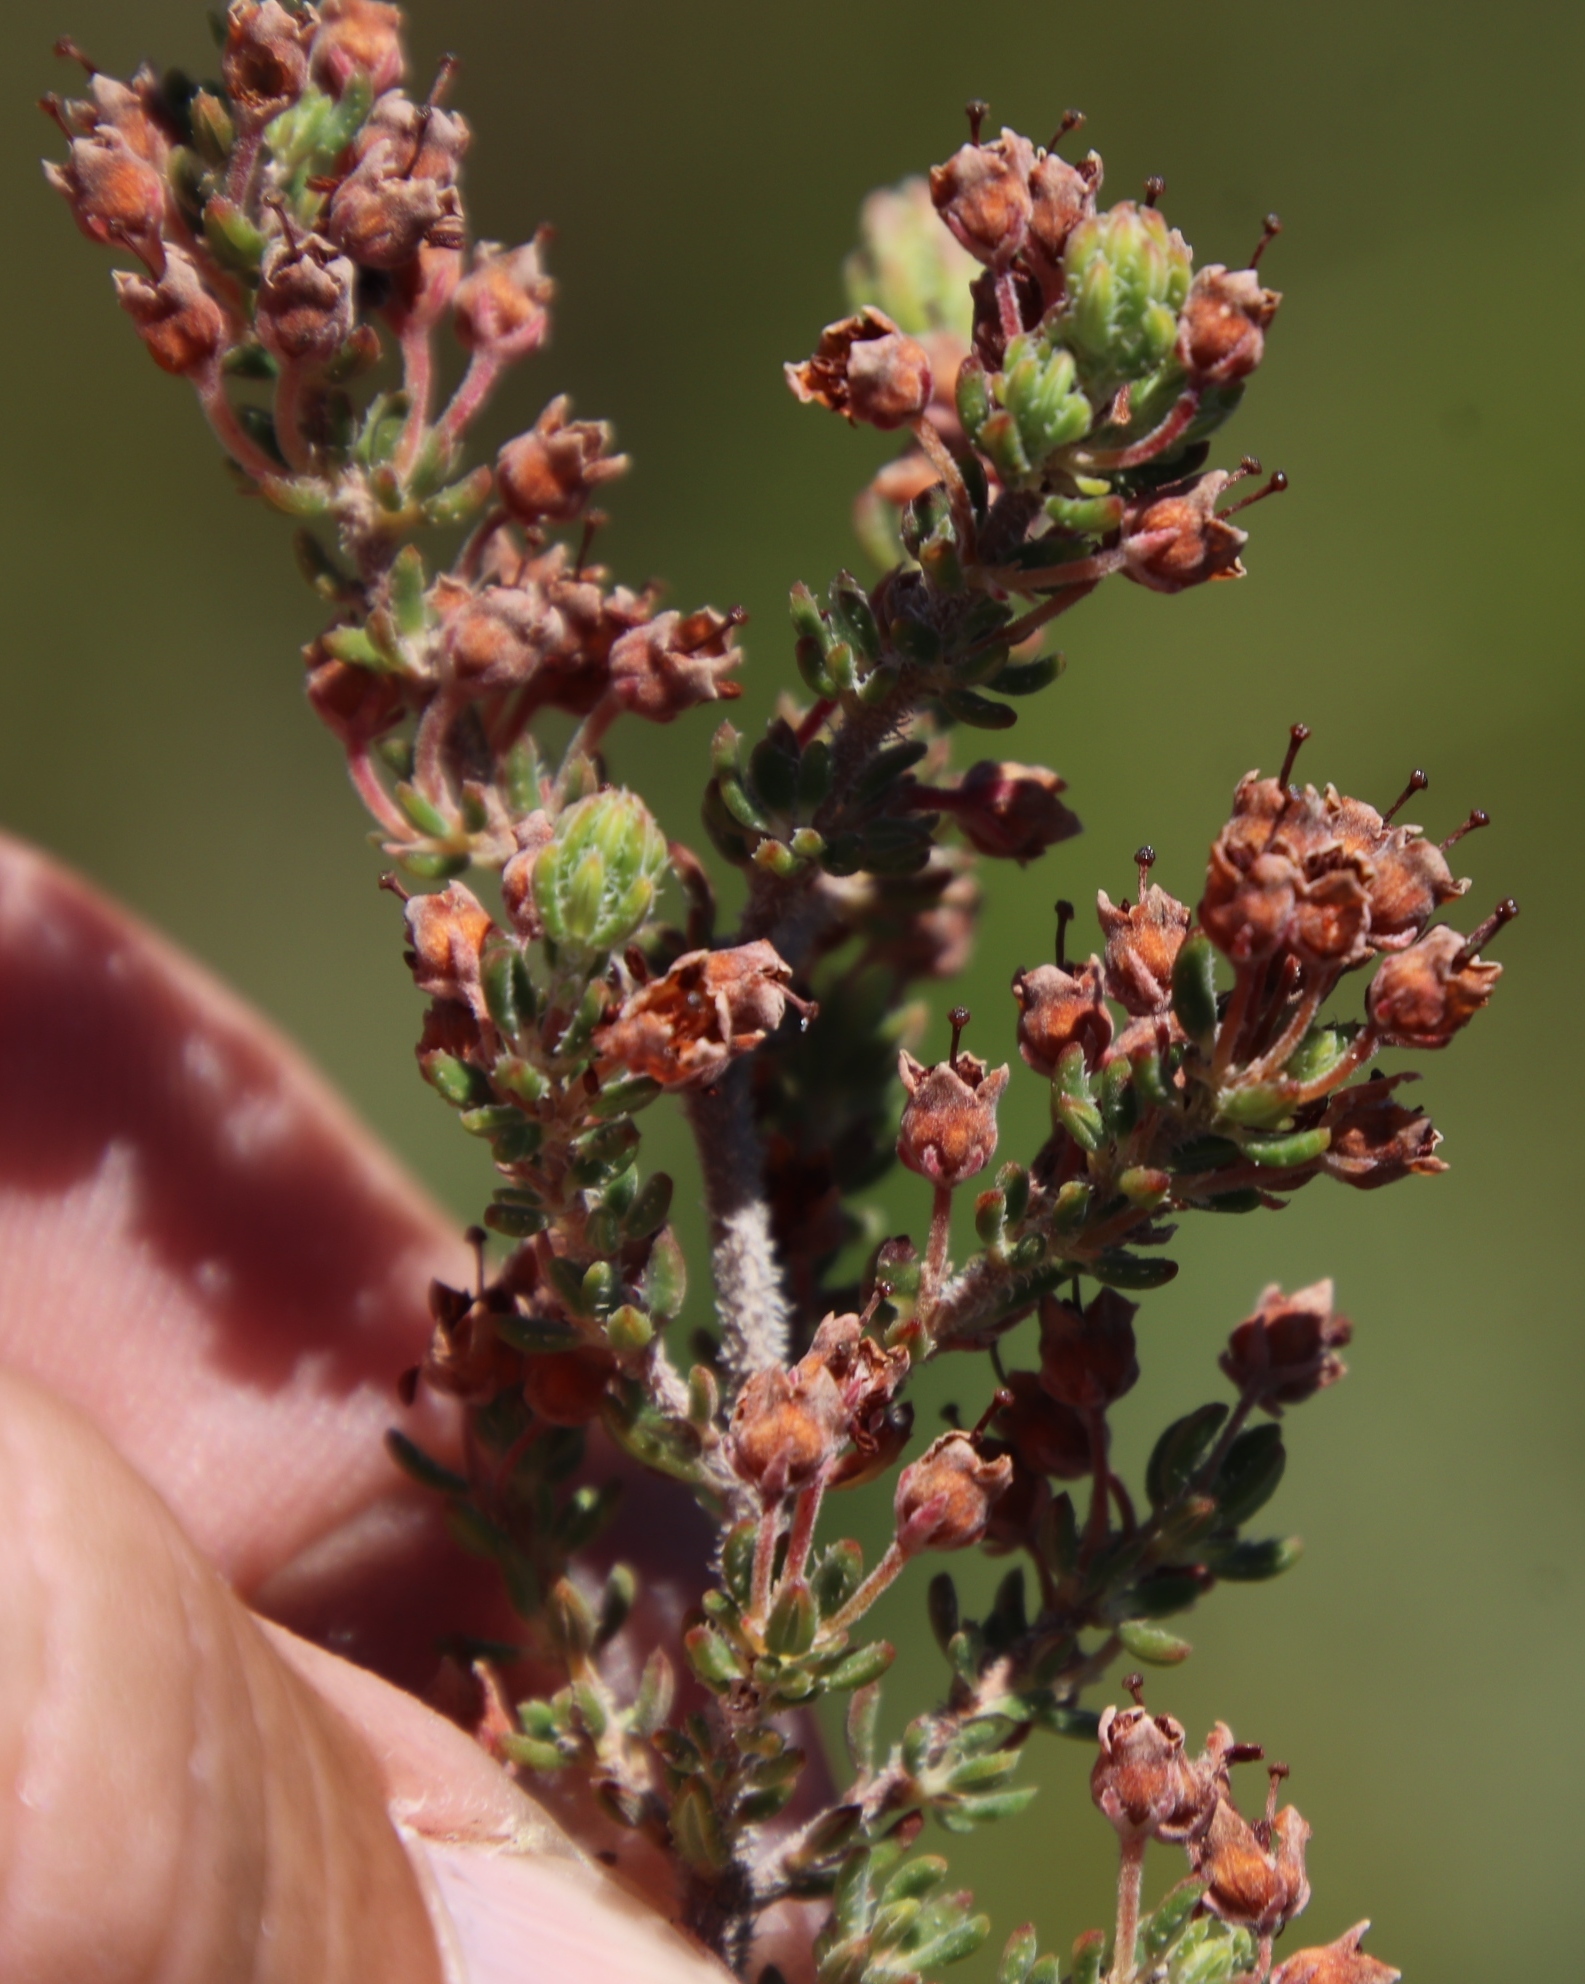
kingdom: Plantae
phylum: Tracheophyta
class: Magnoliopsida
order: Ericales
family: Ericaceae
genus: Erica
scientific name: Erica trichadenia
